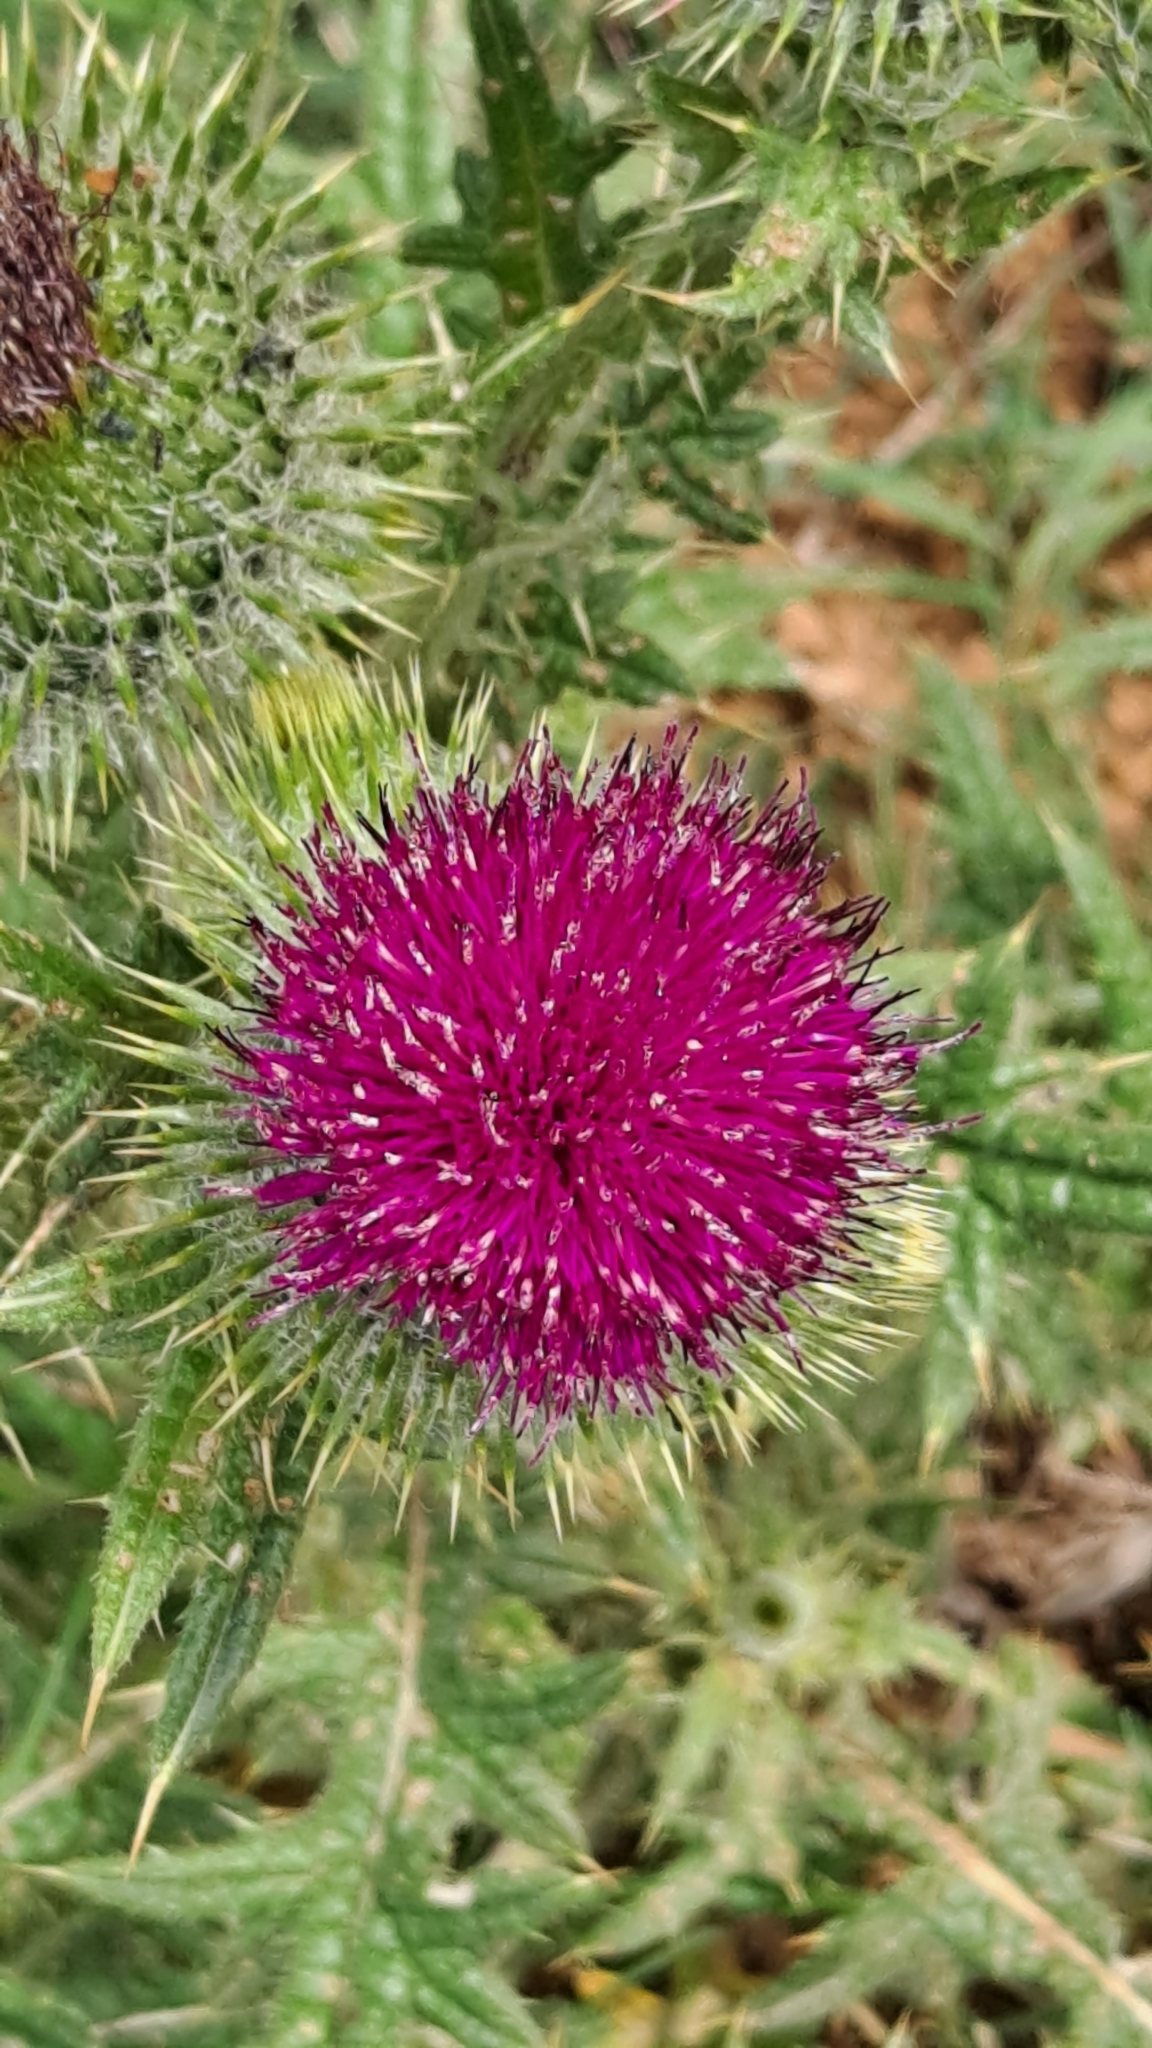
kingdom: Plantae
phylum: Tracheophyta
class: Magnoliopsida
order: Asterales
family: Asteraceae
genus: Cirsium
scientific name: Cirsium vulgare
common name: Bull thistle
